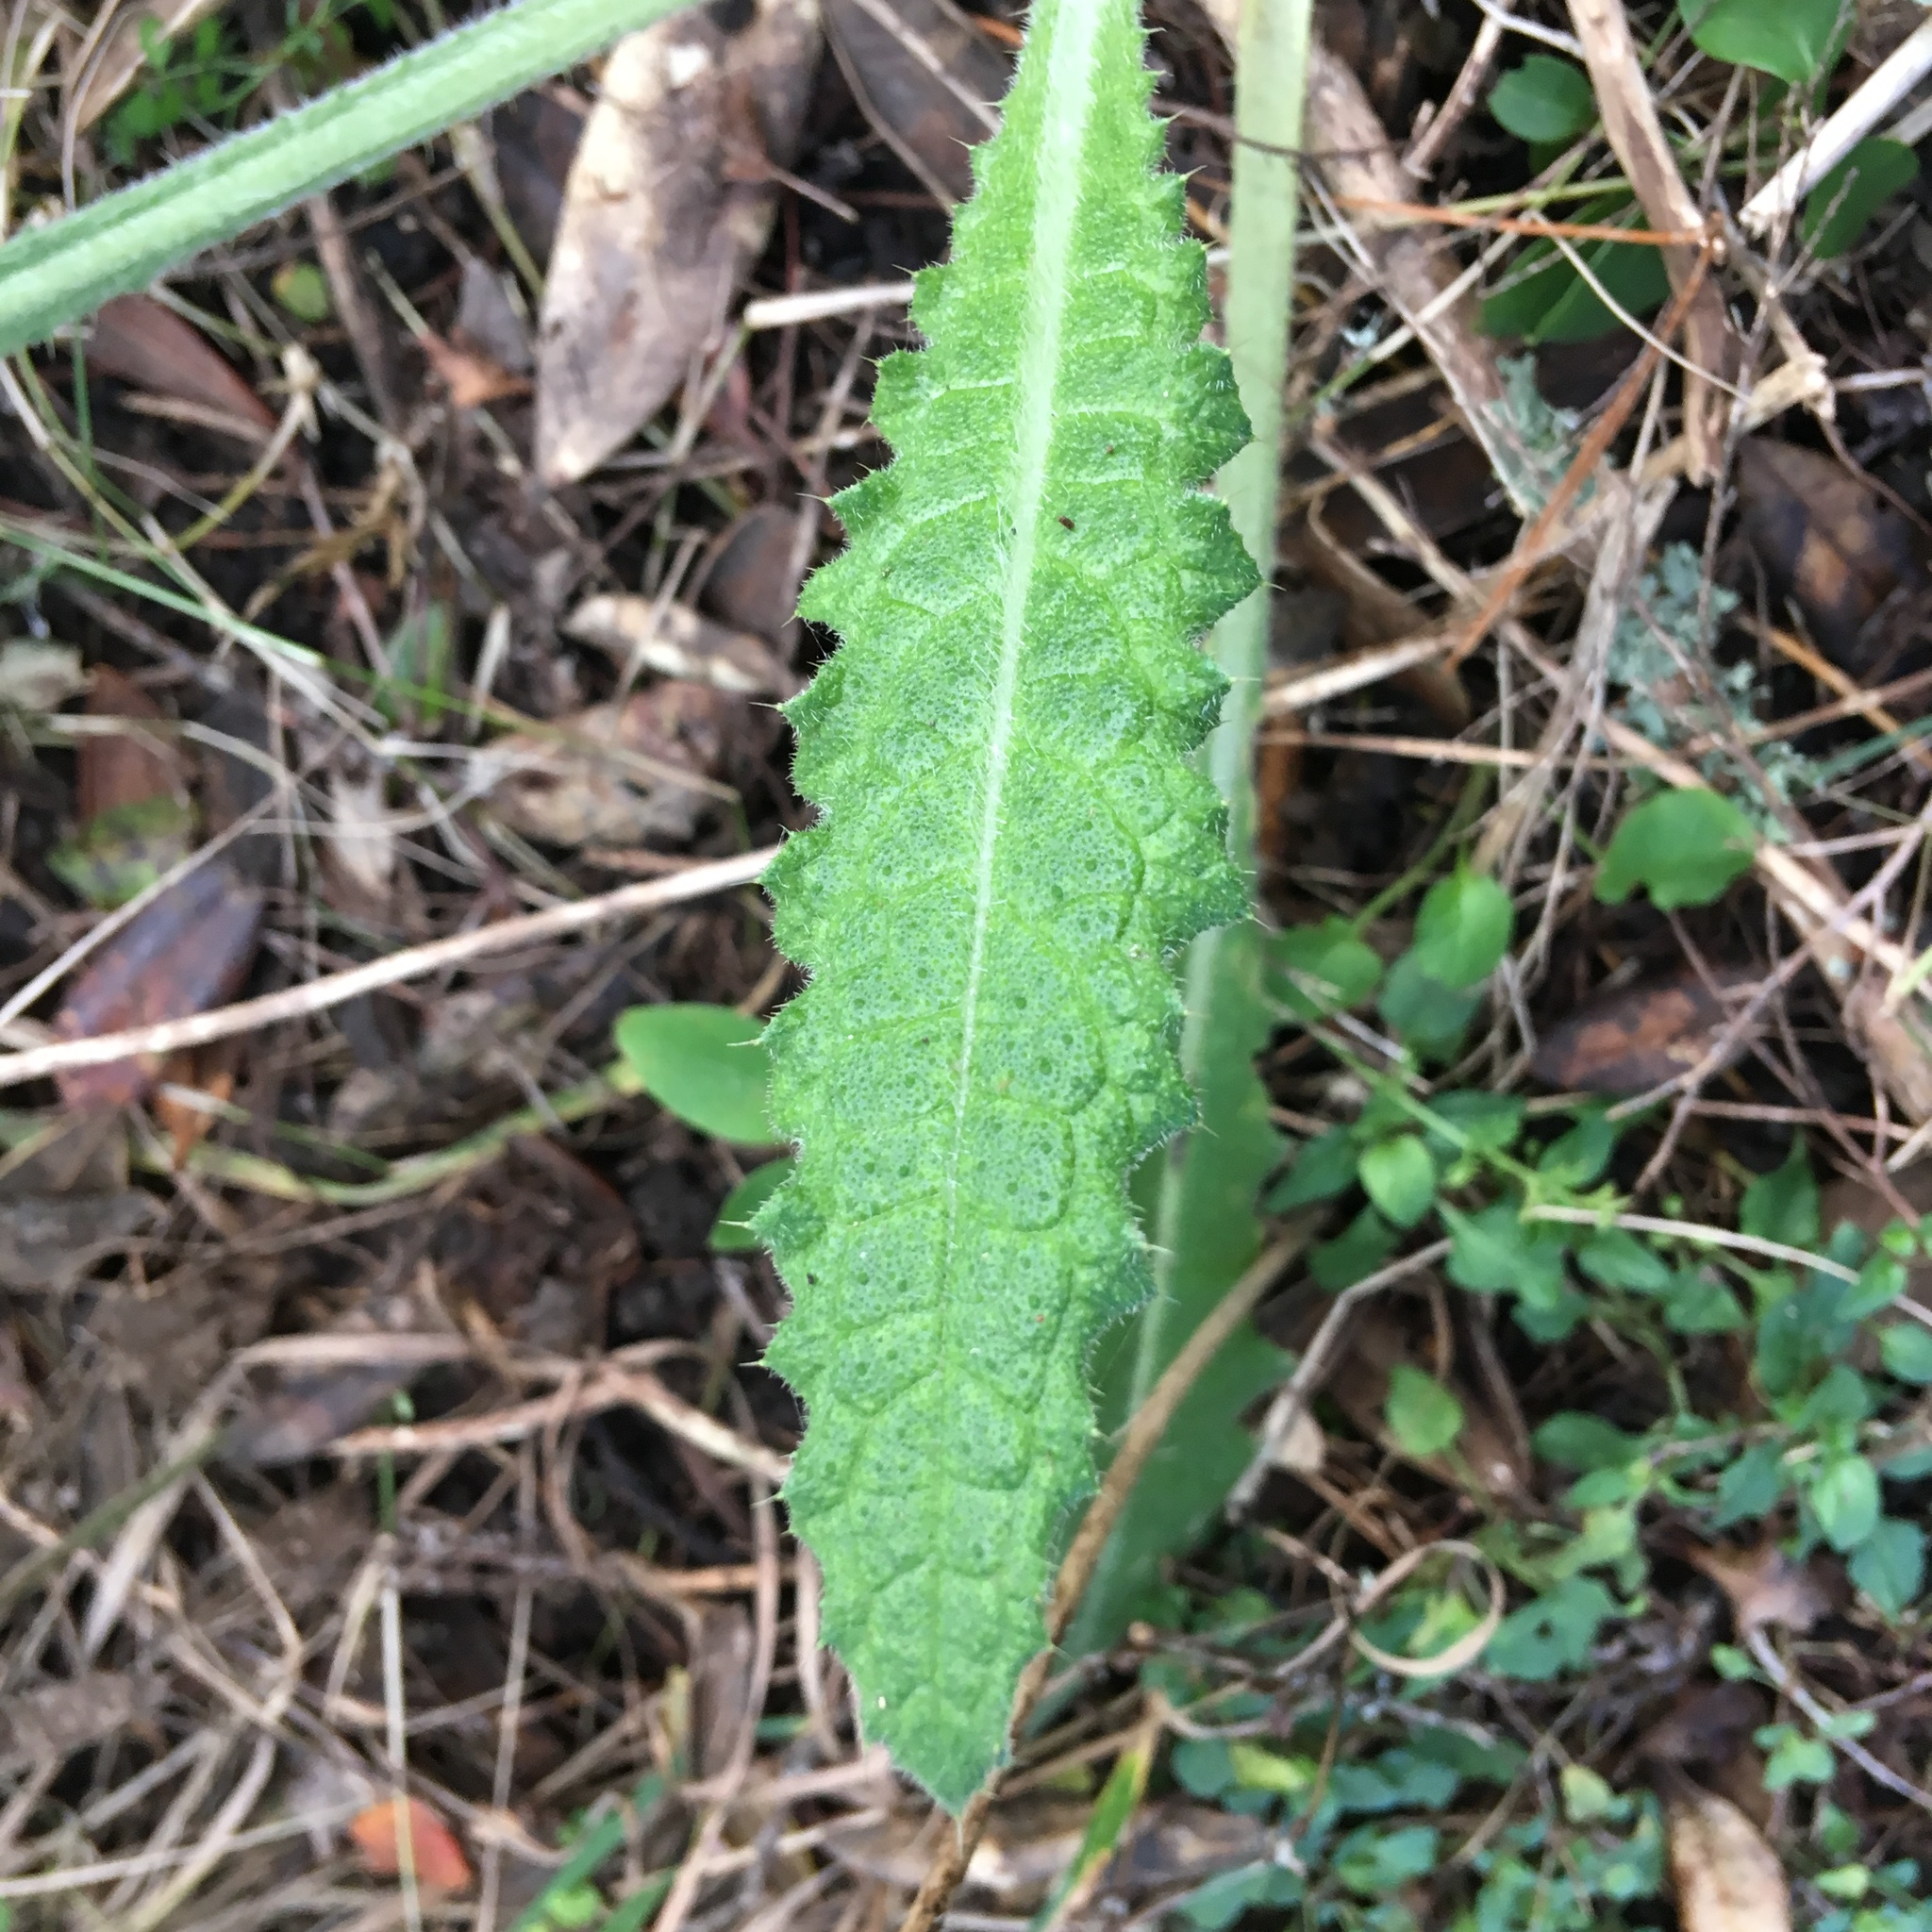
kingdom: Plantae
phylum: Tracheophyta
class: Magnoliopsida
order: Asterales
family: Asteraceae
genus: Cirsium
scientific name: Cirsium vulgare
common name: Bull thistle
